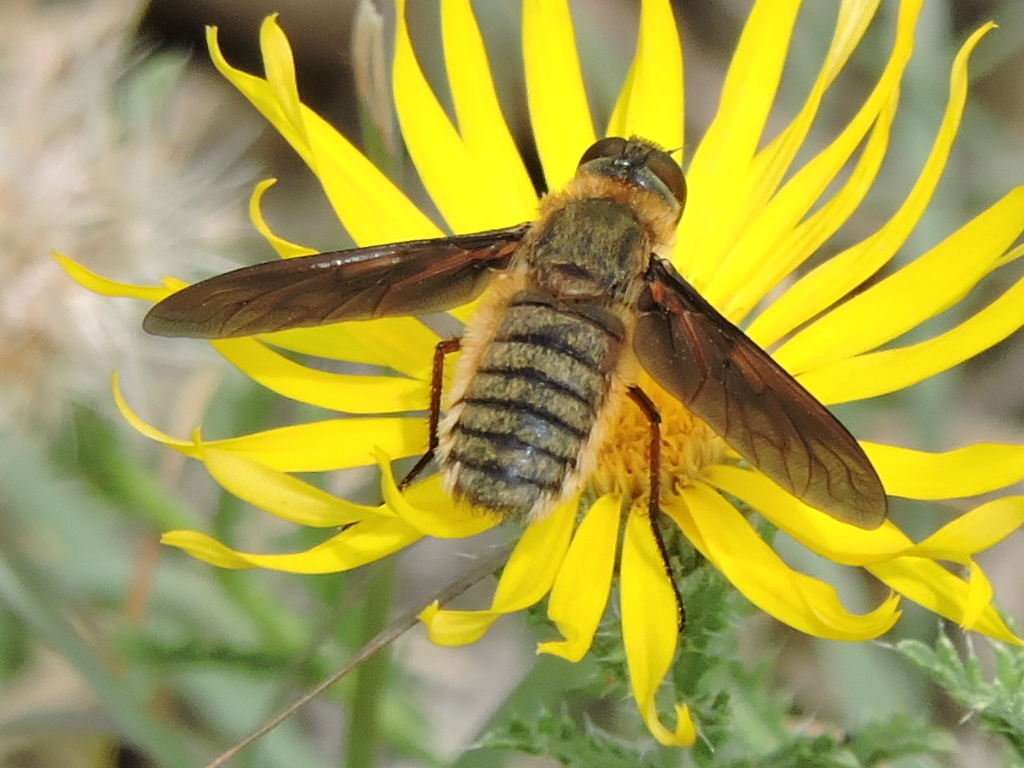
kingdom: Animalia
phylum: Arthropoda
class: Insecta
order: Diptera
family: Bombyliidae
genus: Poecilanthrax
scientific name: Poecilanthrax lucifer
